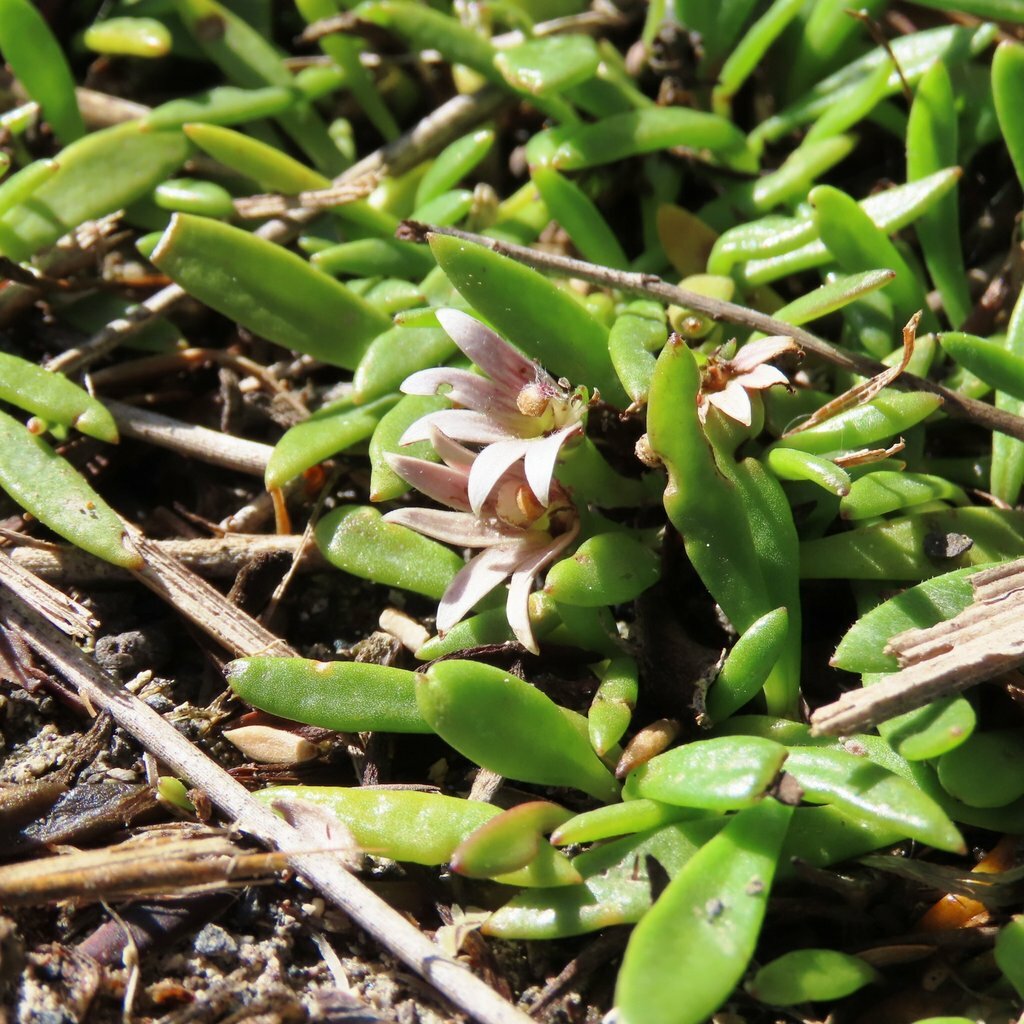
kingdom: Plantae
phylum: Tracheophyta
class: Magnoliopsida
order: Asterales
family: Goodeniaceae
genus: Goodenia
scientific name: Goodenia radicans
